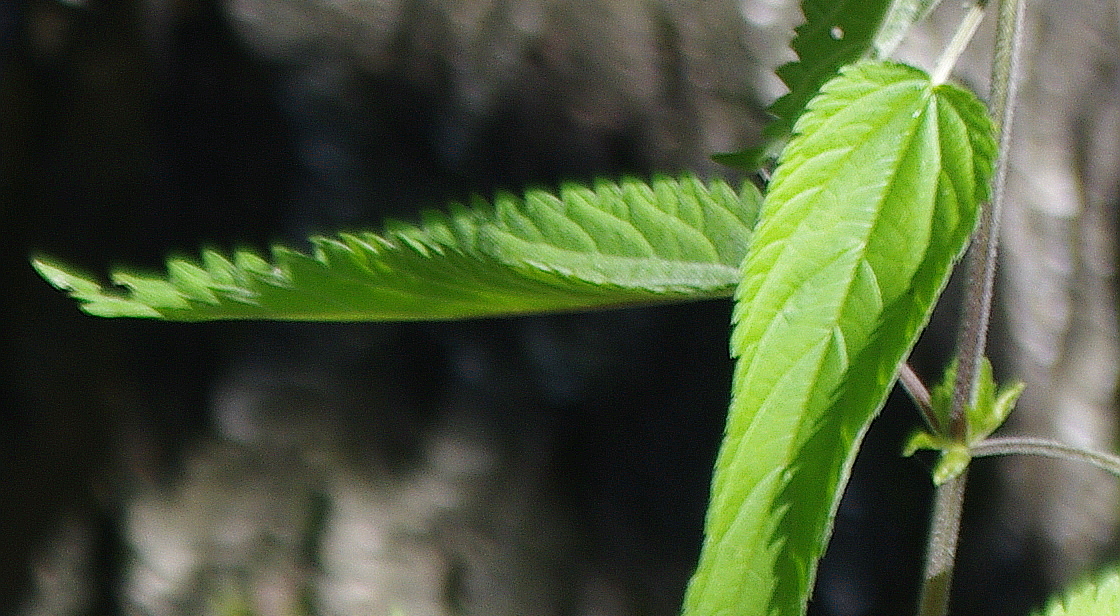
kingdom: Plantae
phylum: Tracheophyta
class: Magnoliopsida
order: Rosales
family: Urticaceae
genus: Urtica
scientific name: Urtica dioica
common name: Common nettle
